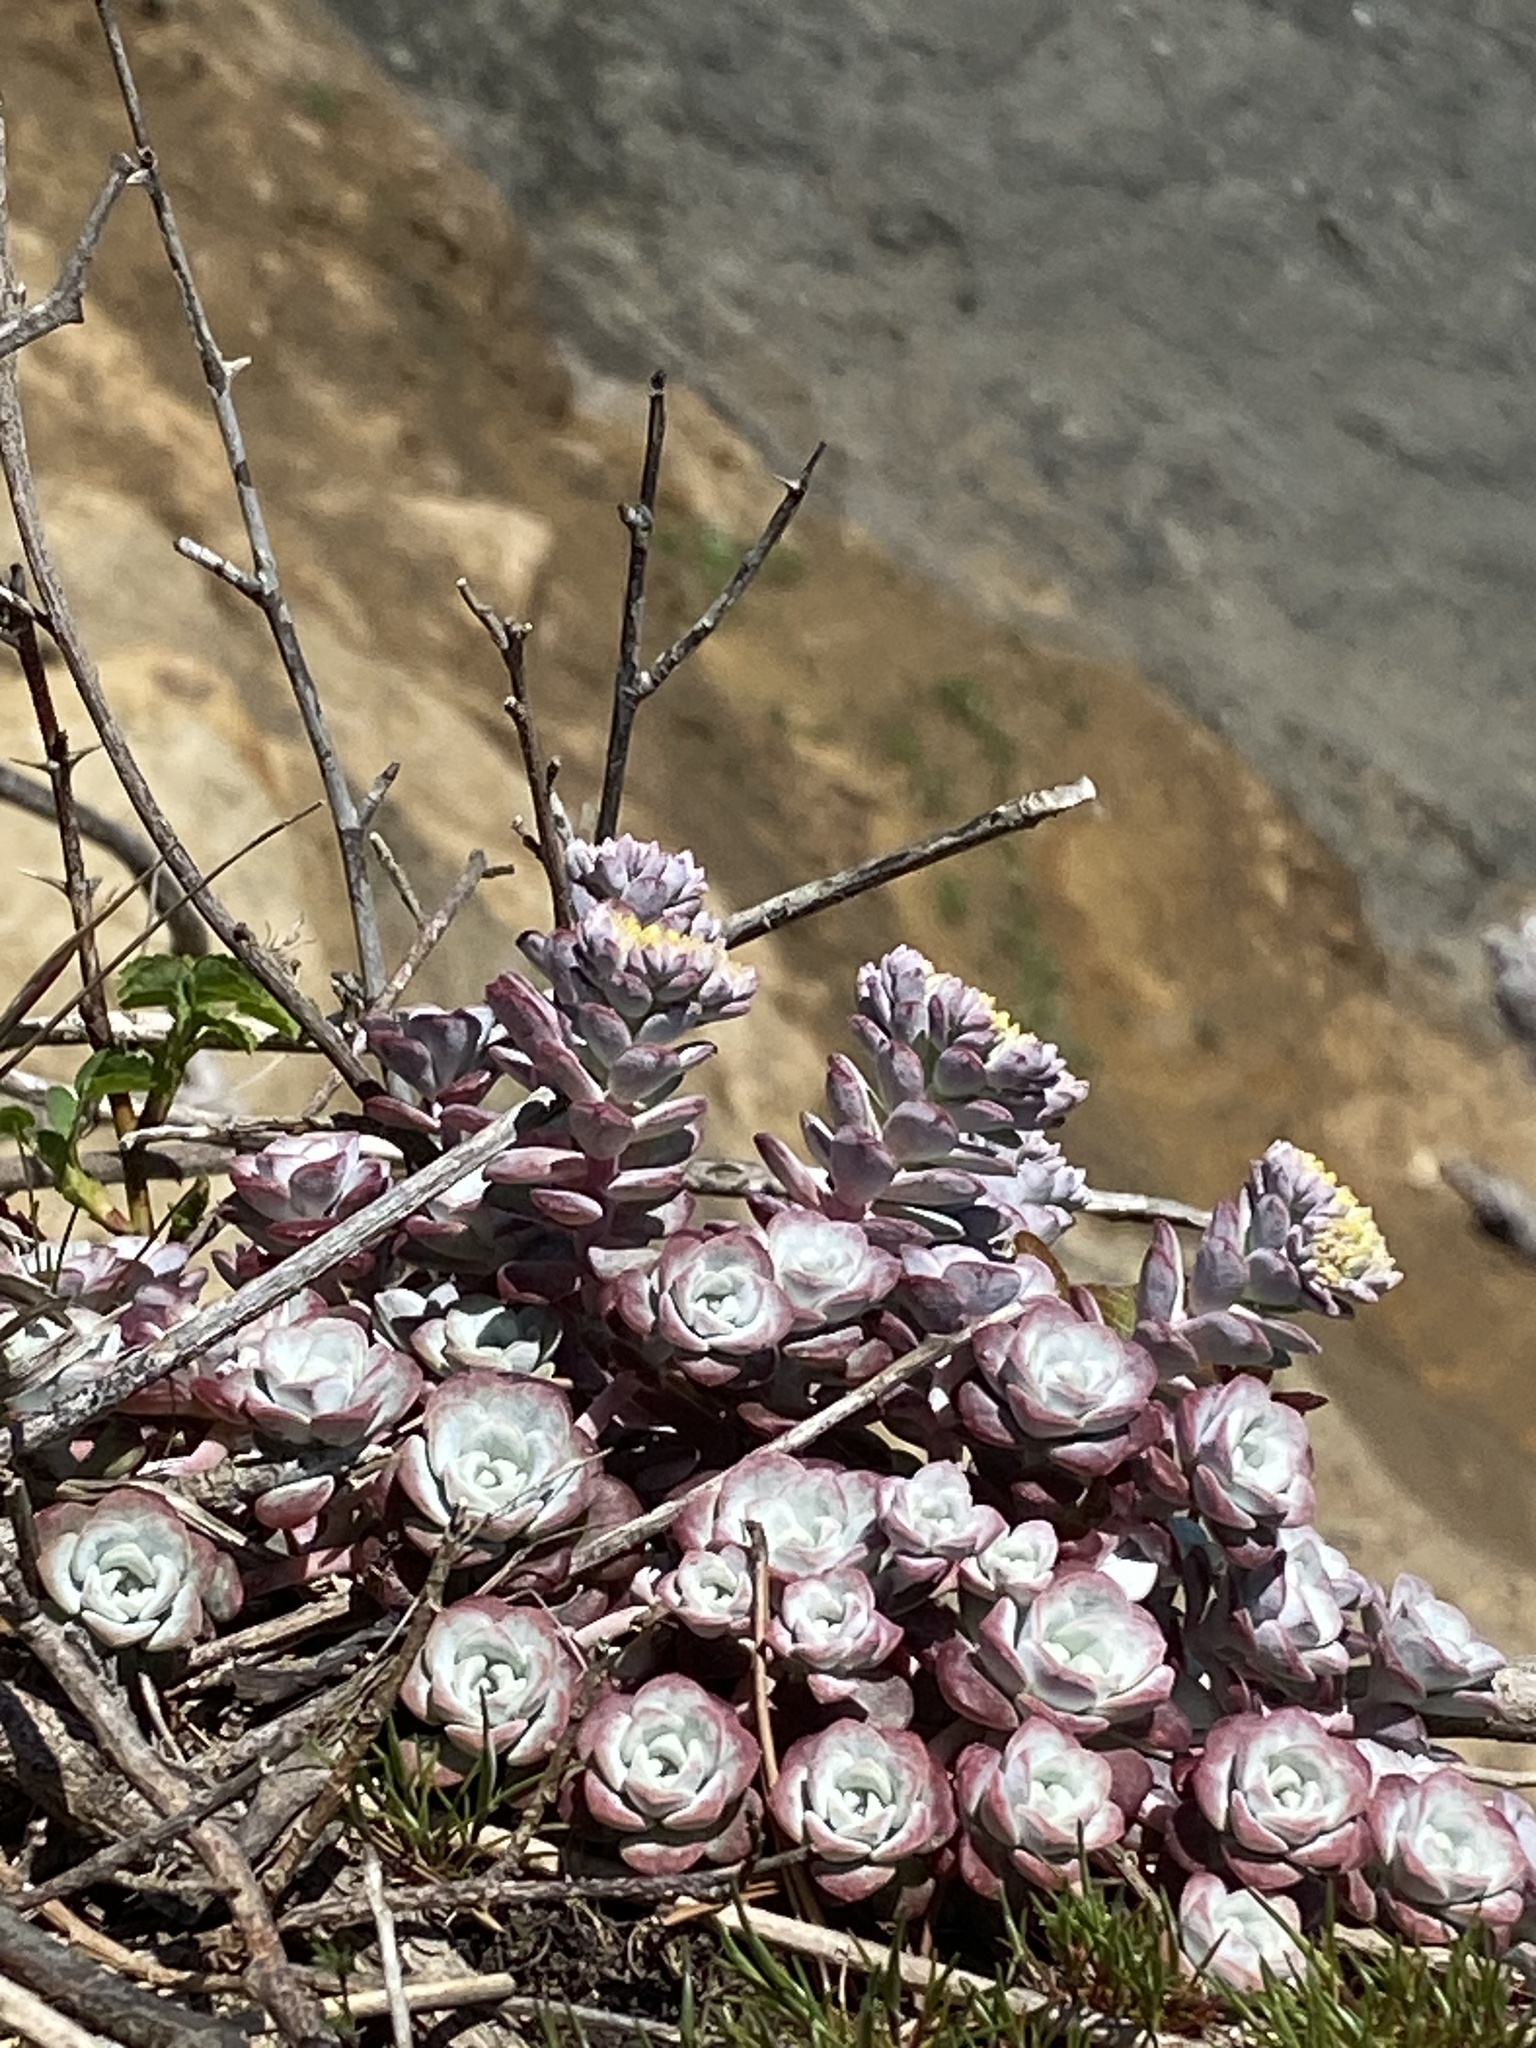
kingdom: Plantae
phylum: Tracheophyta
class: Magnoliopsida
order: Saxifragales
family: Crassulaceae
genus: Sedum
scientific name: Sedum spathulifolium
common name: Colorado stonecrop
